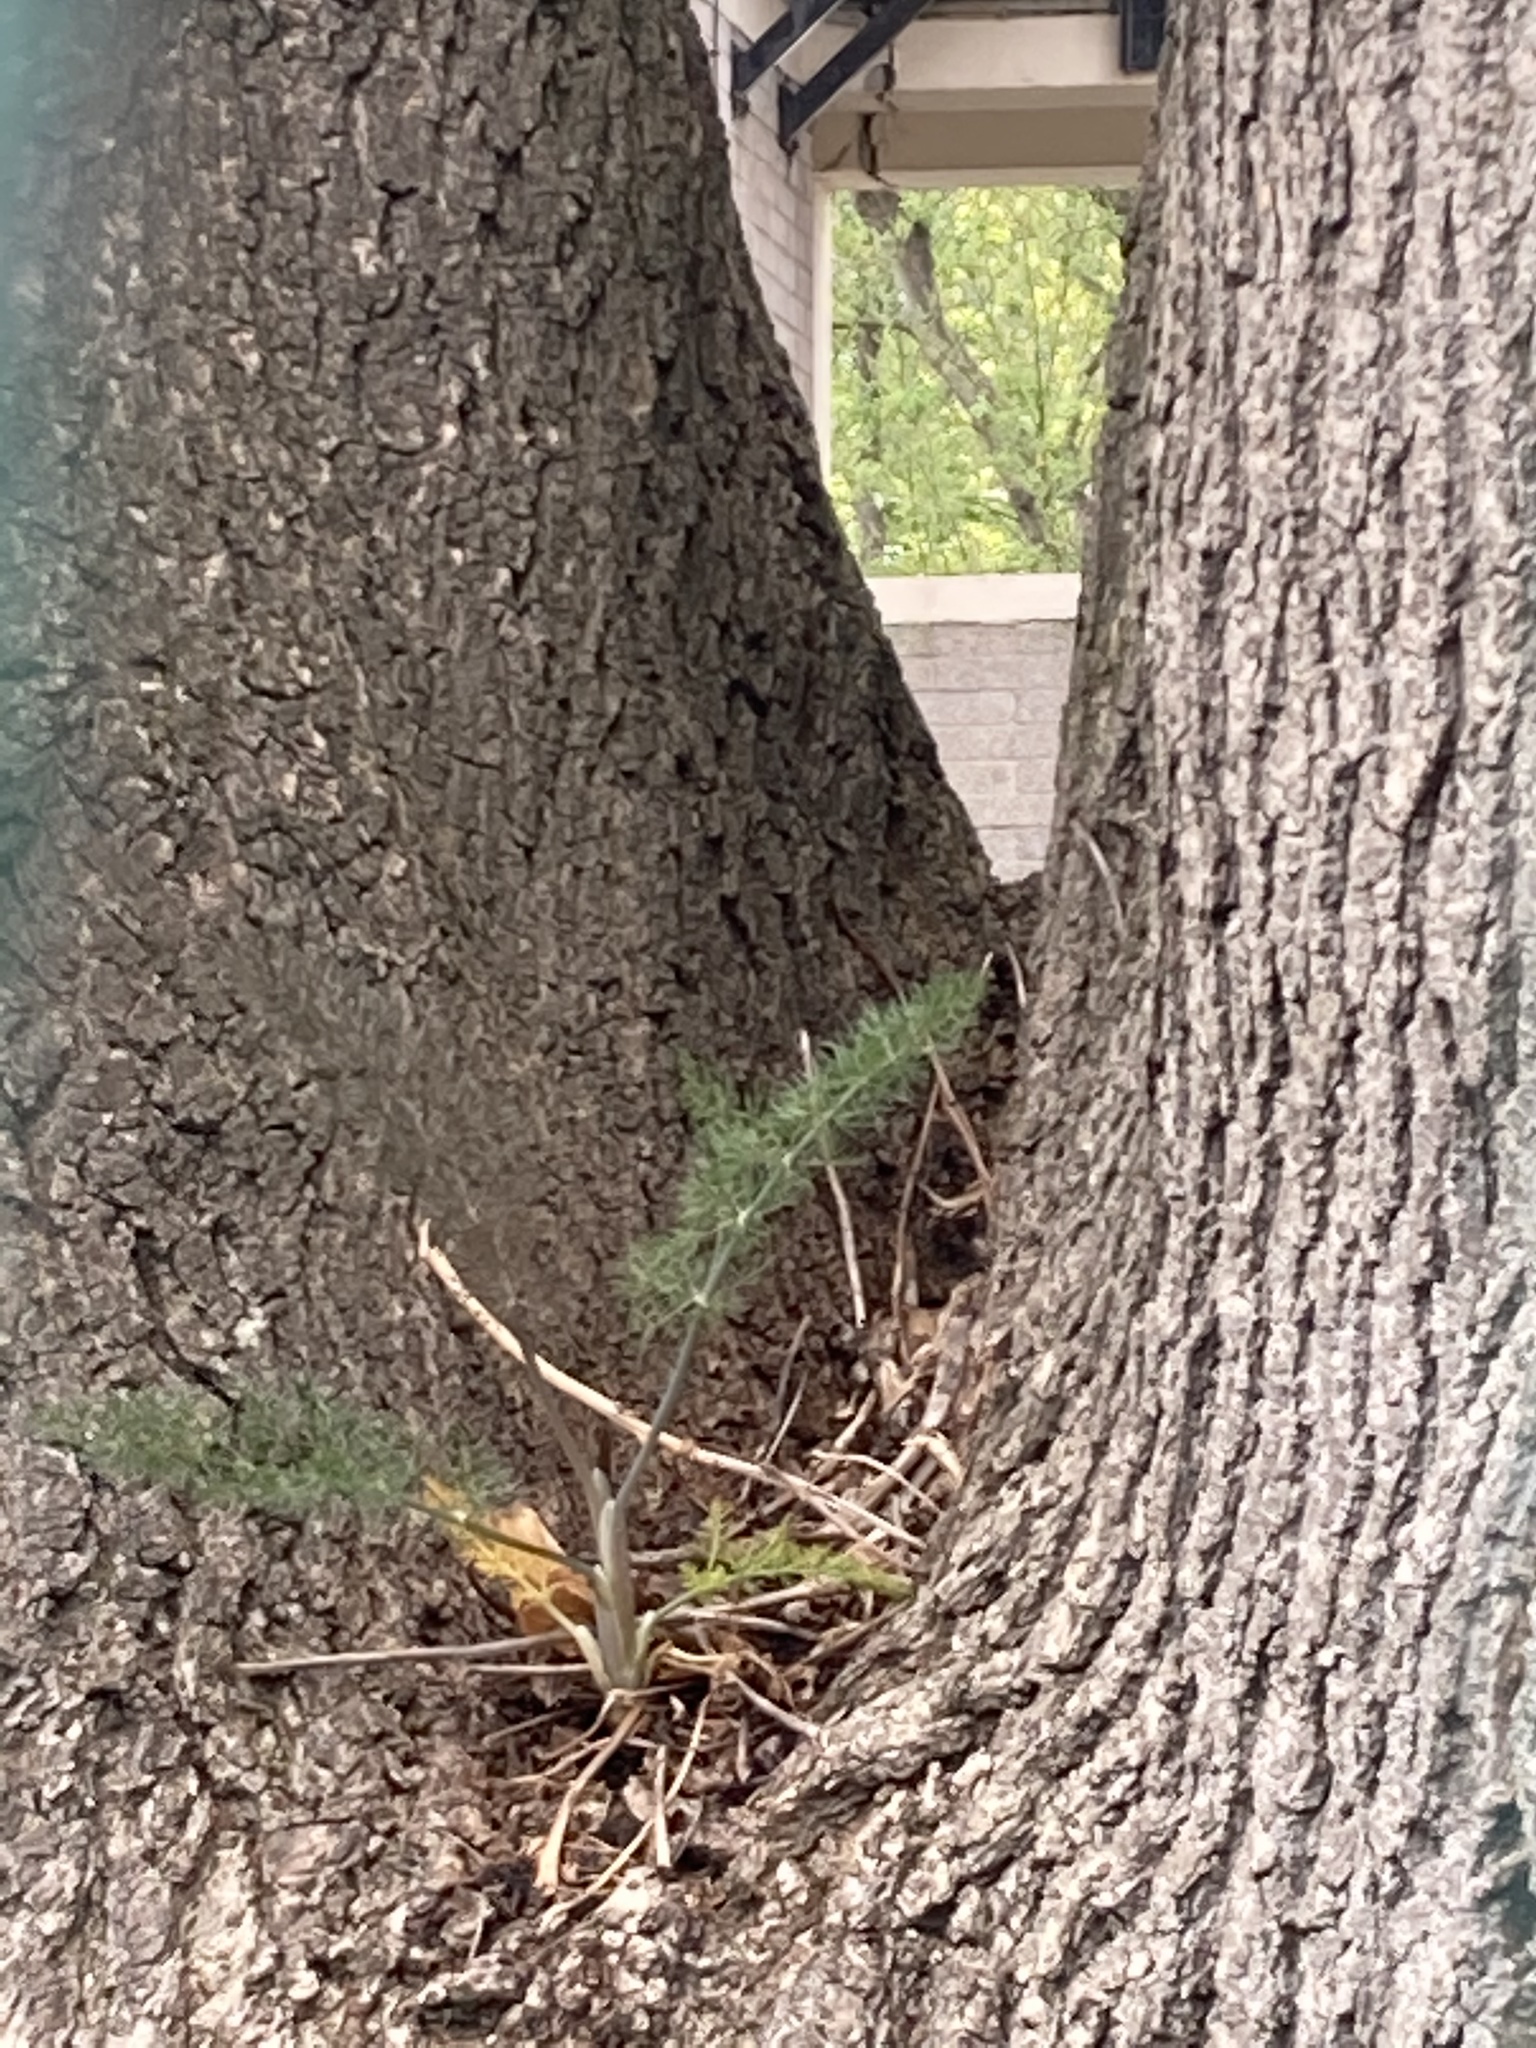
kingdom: Plantae
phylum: Tracheophyta
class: Magnoliopsida
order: Apiales
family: Apiaceae
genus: Foeniculum
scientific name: Foeniculum vulgare
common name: Fennel
